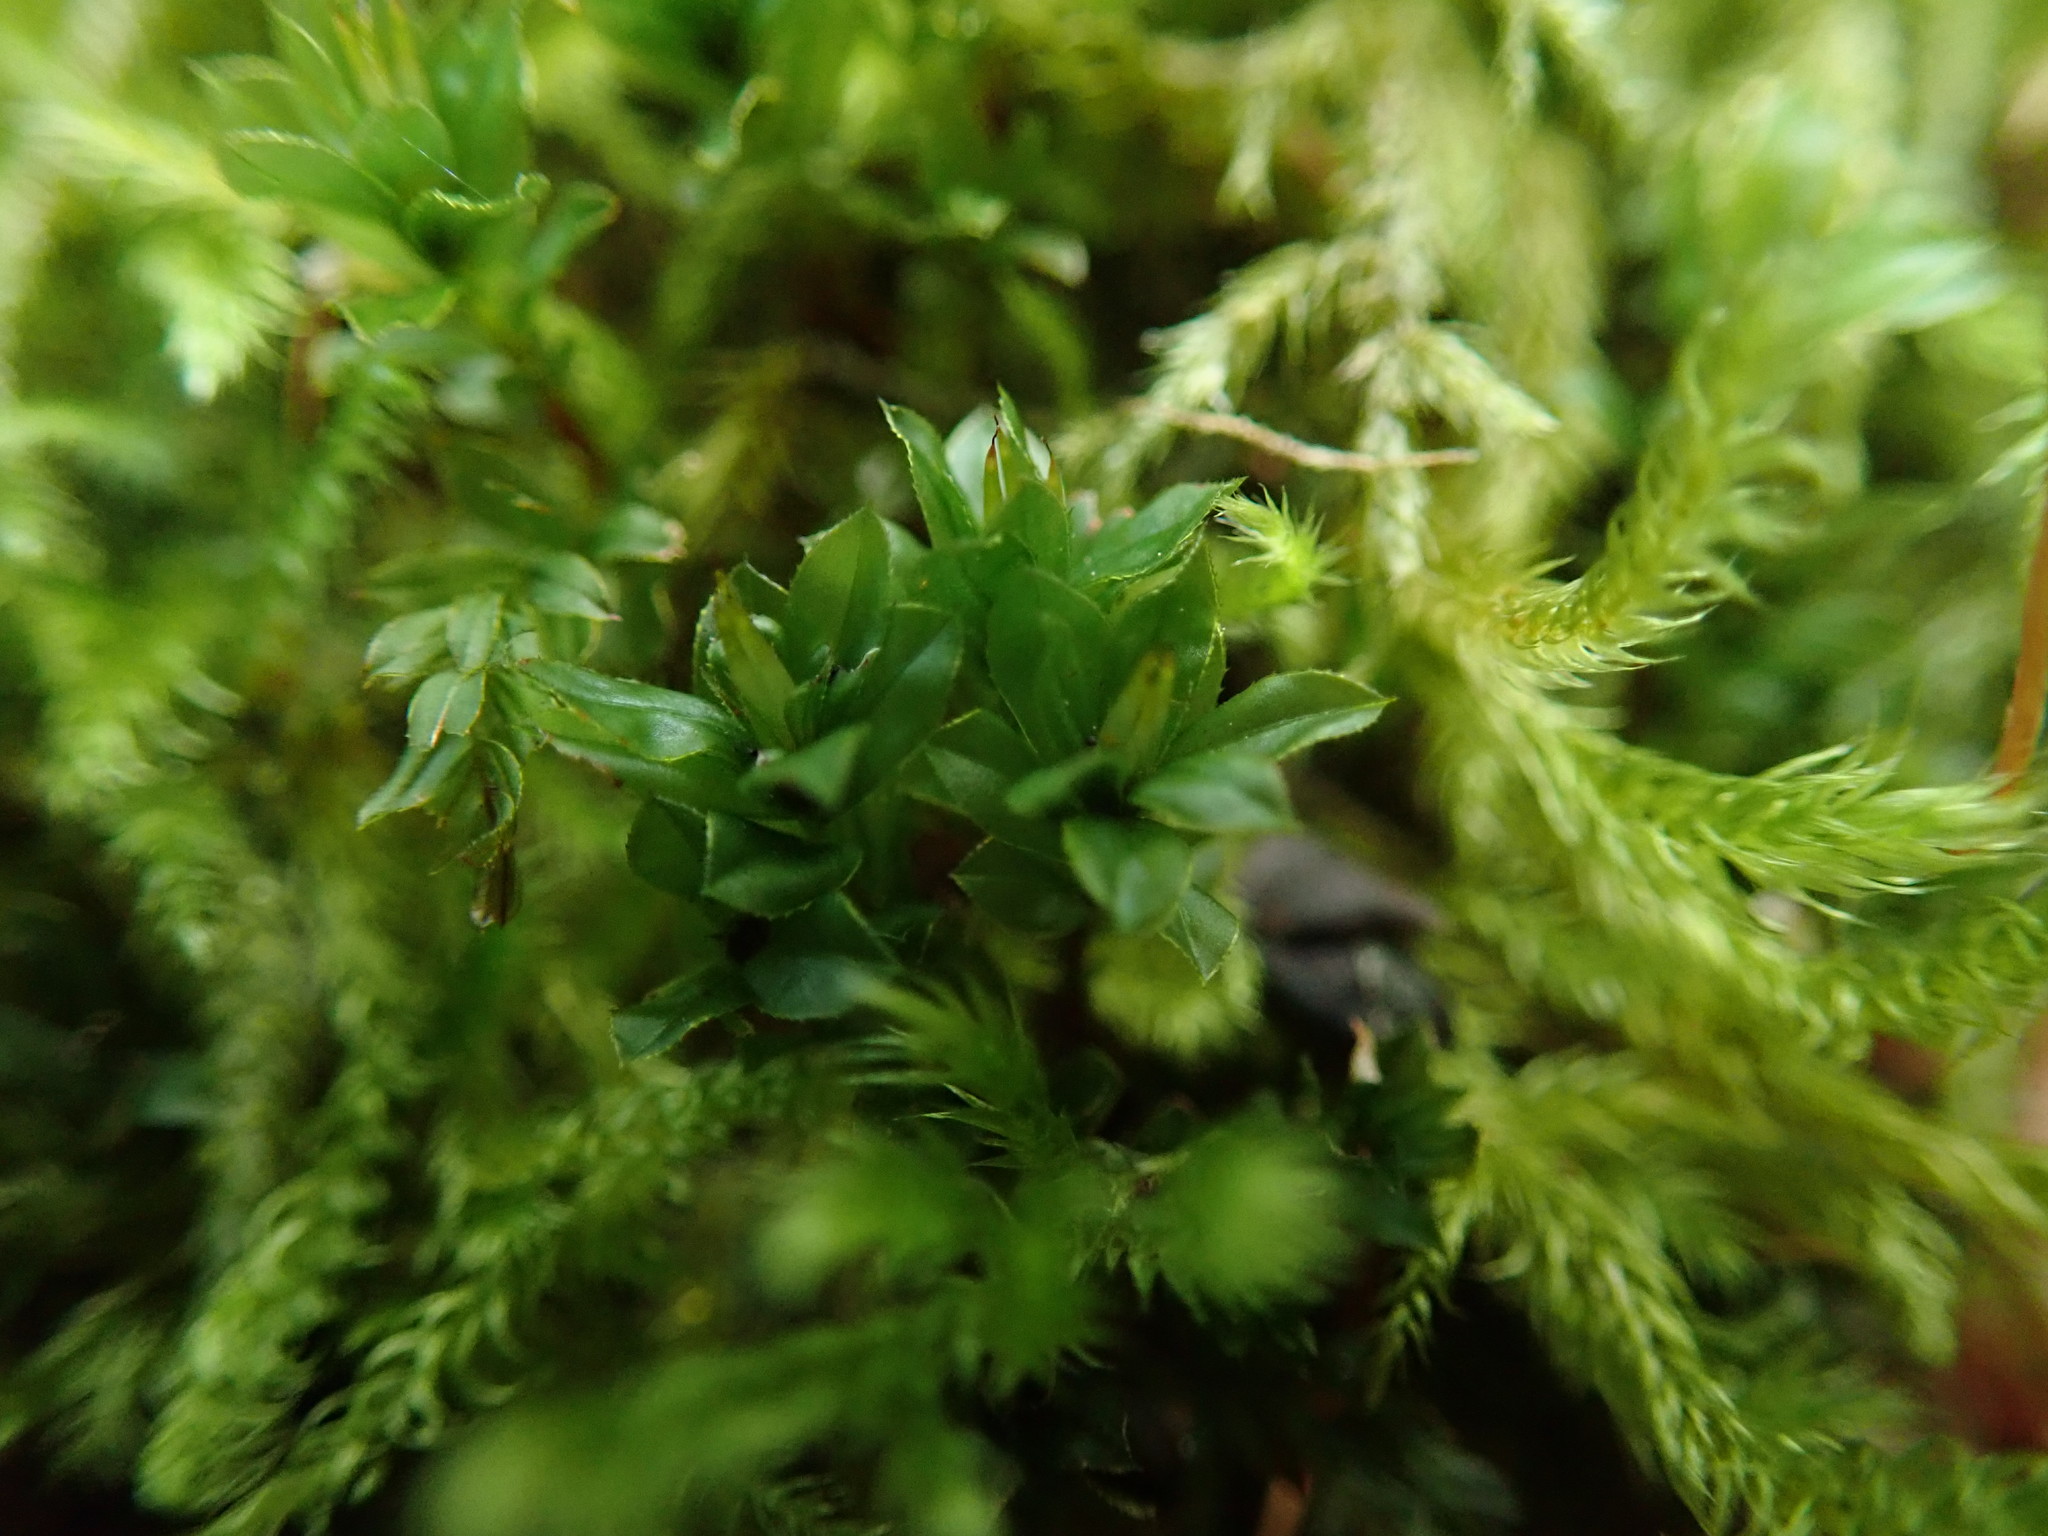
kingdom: Plantae
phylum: Bryophyta
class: Bryopsida
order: Bryales
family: Mniaceae
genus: Plagiomnium
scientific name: Plagiomnium venustum
